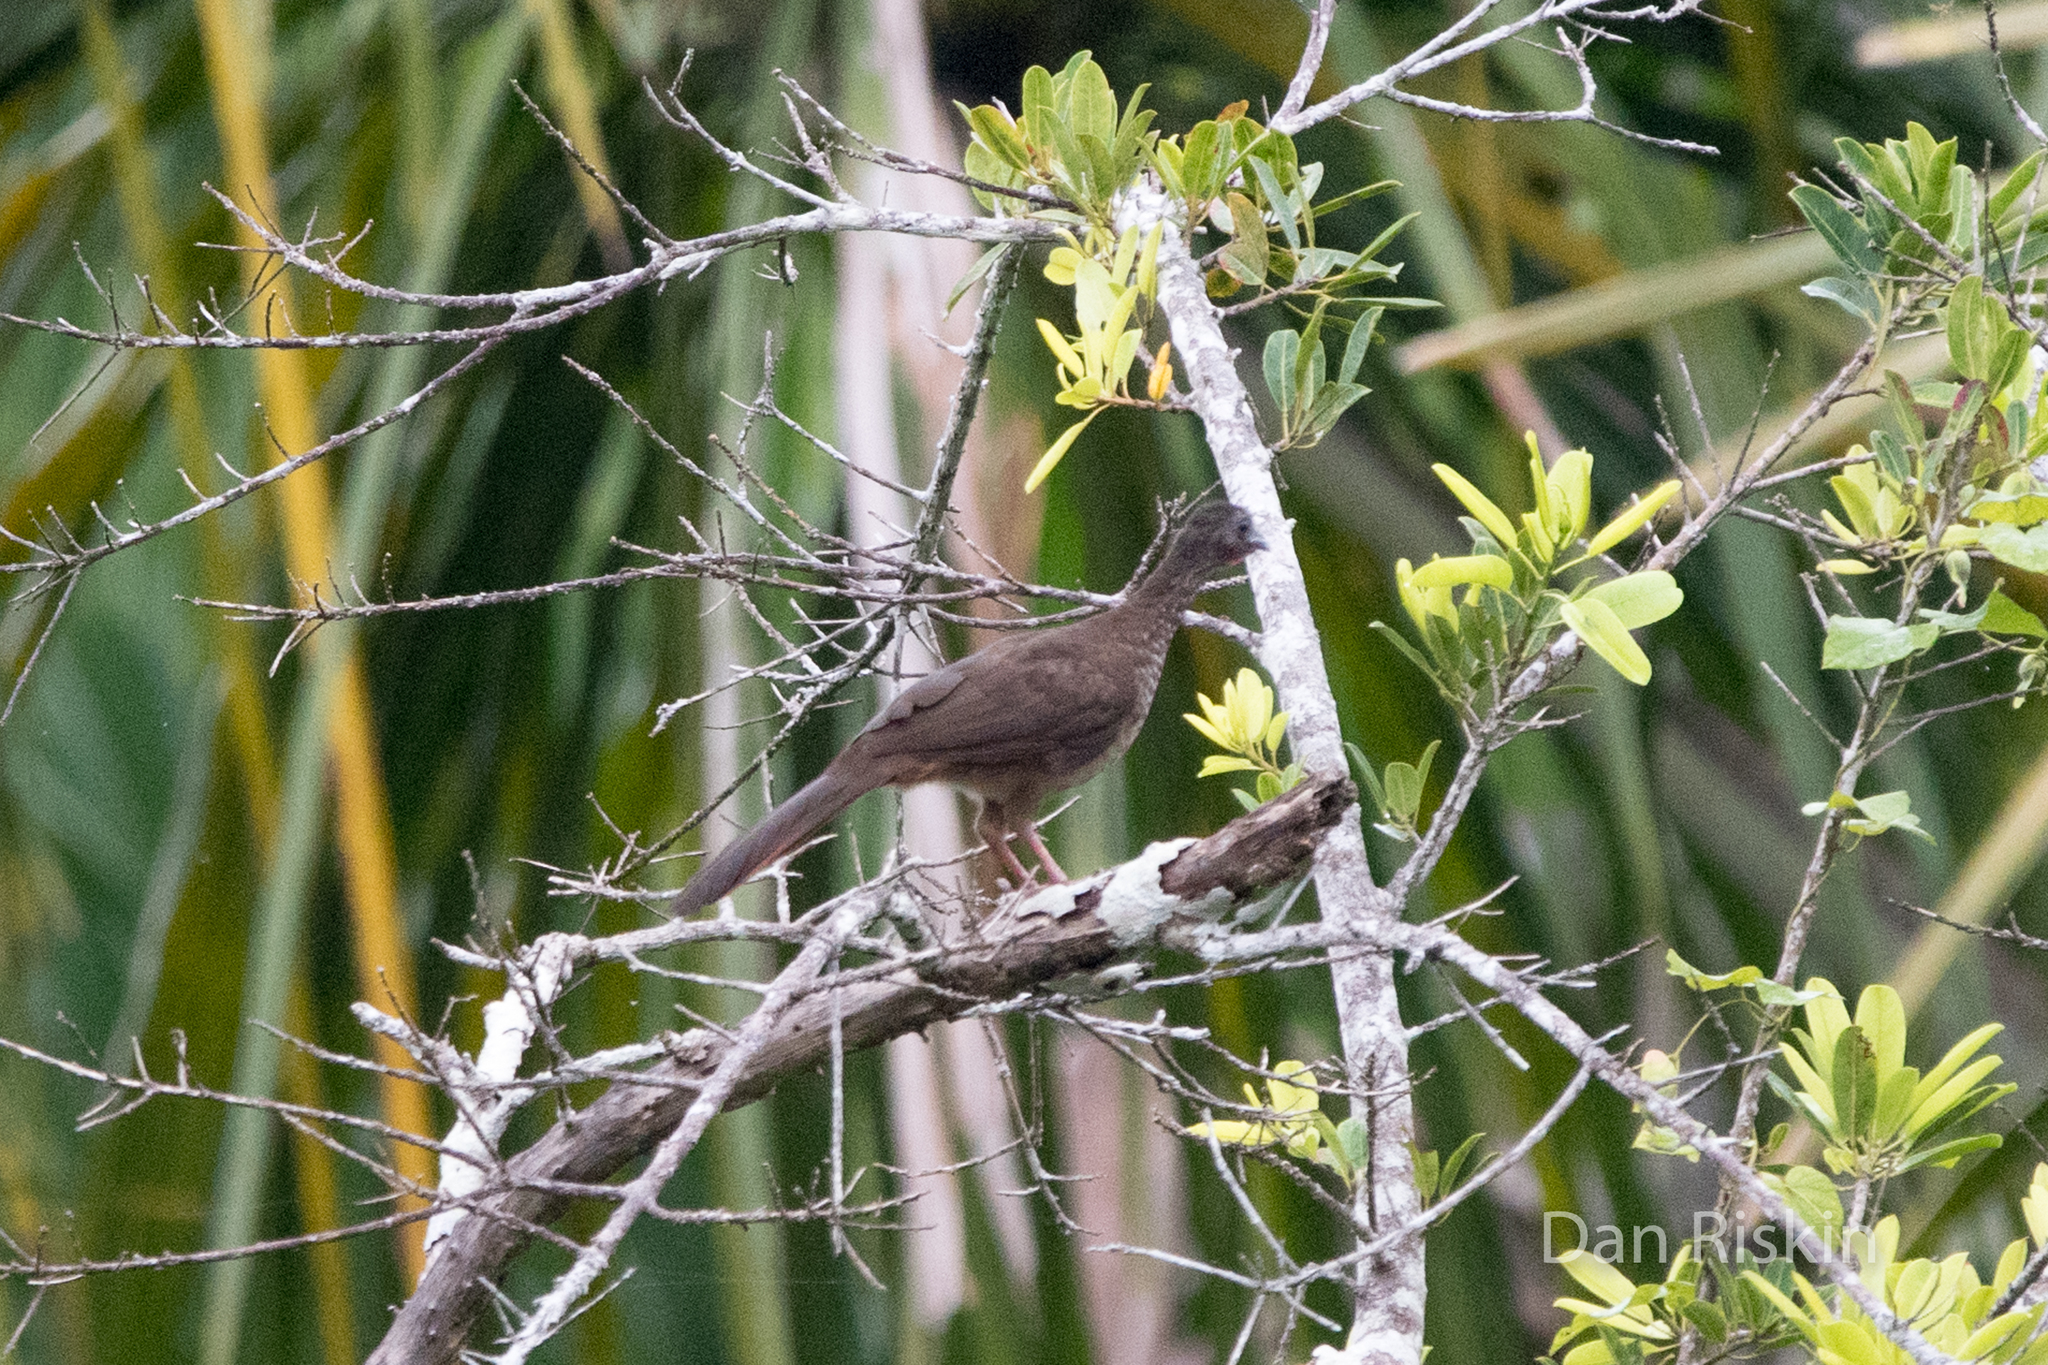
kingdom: Animalia
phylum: Chordata
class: Aves
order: Galliformes
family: Cracidae
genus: Ortalis
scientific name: Ortalis guttata
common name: Speckled chachalaca
